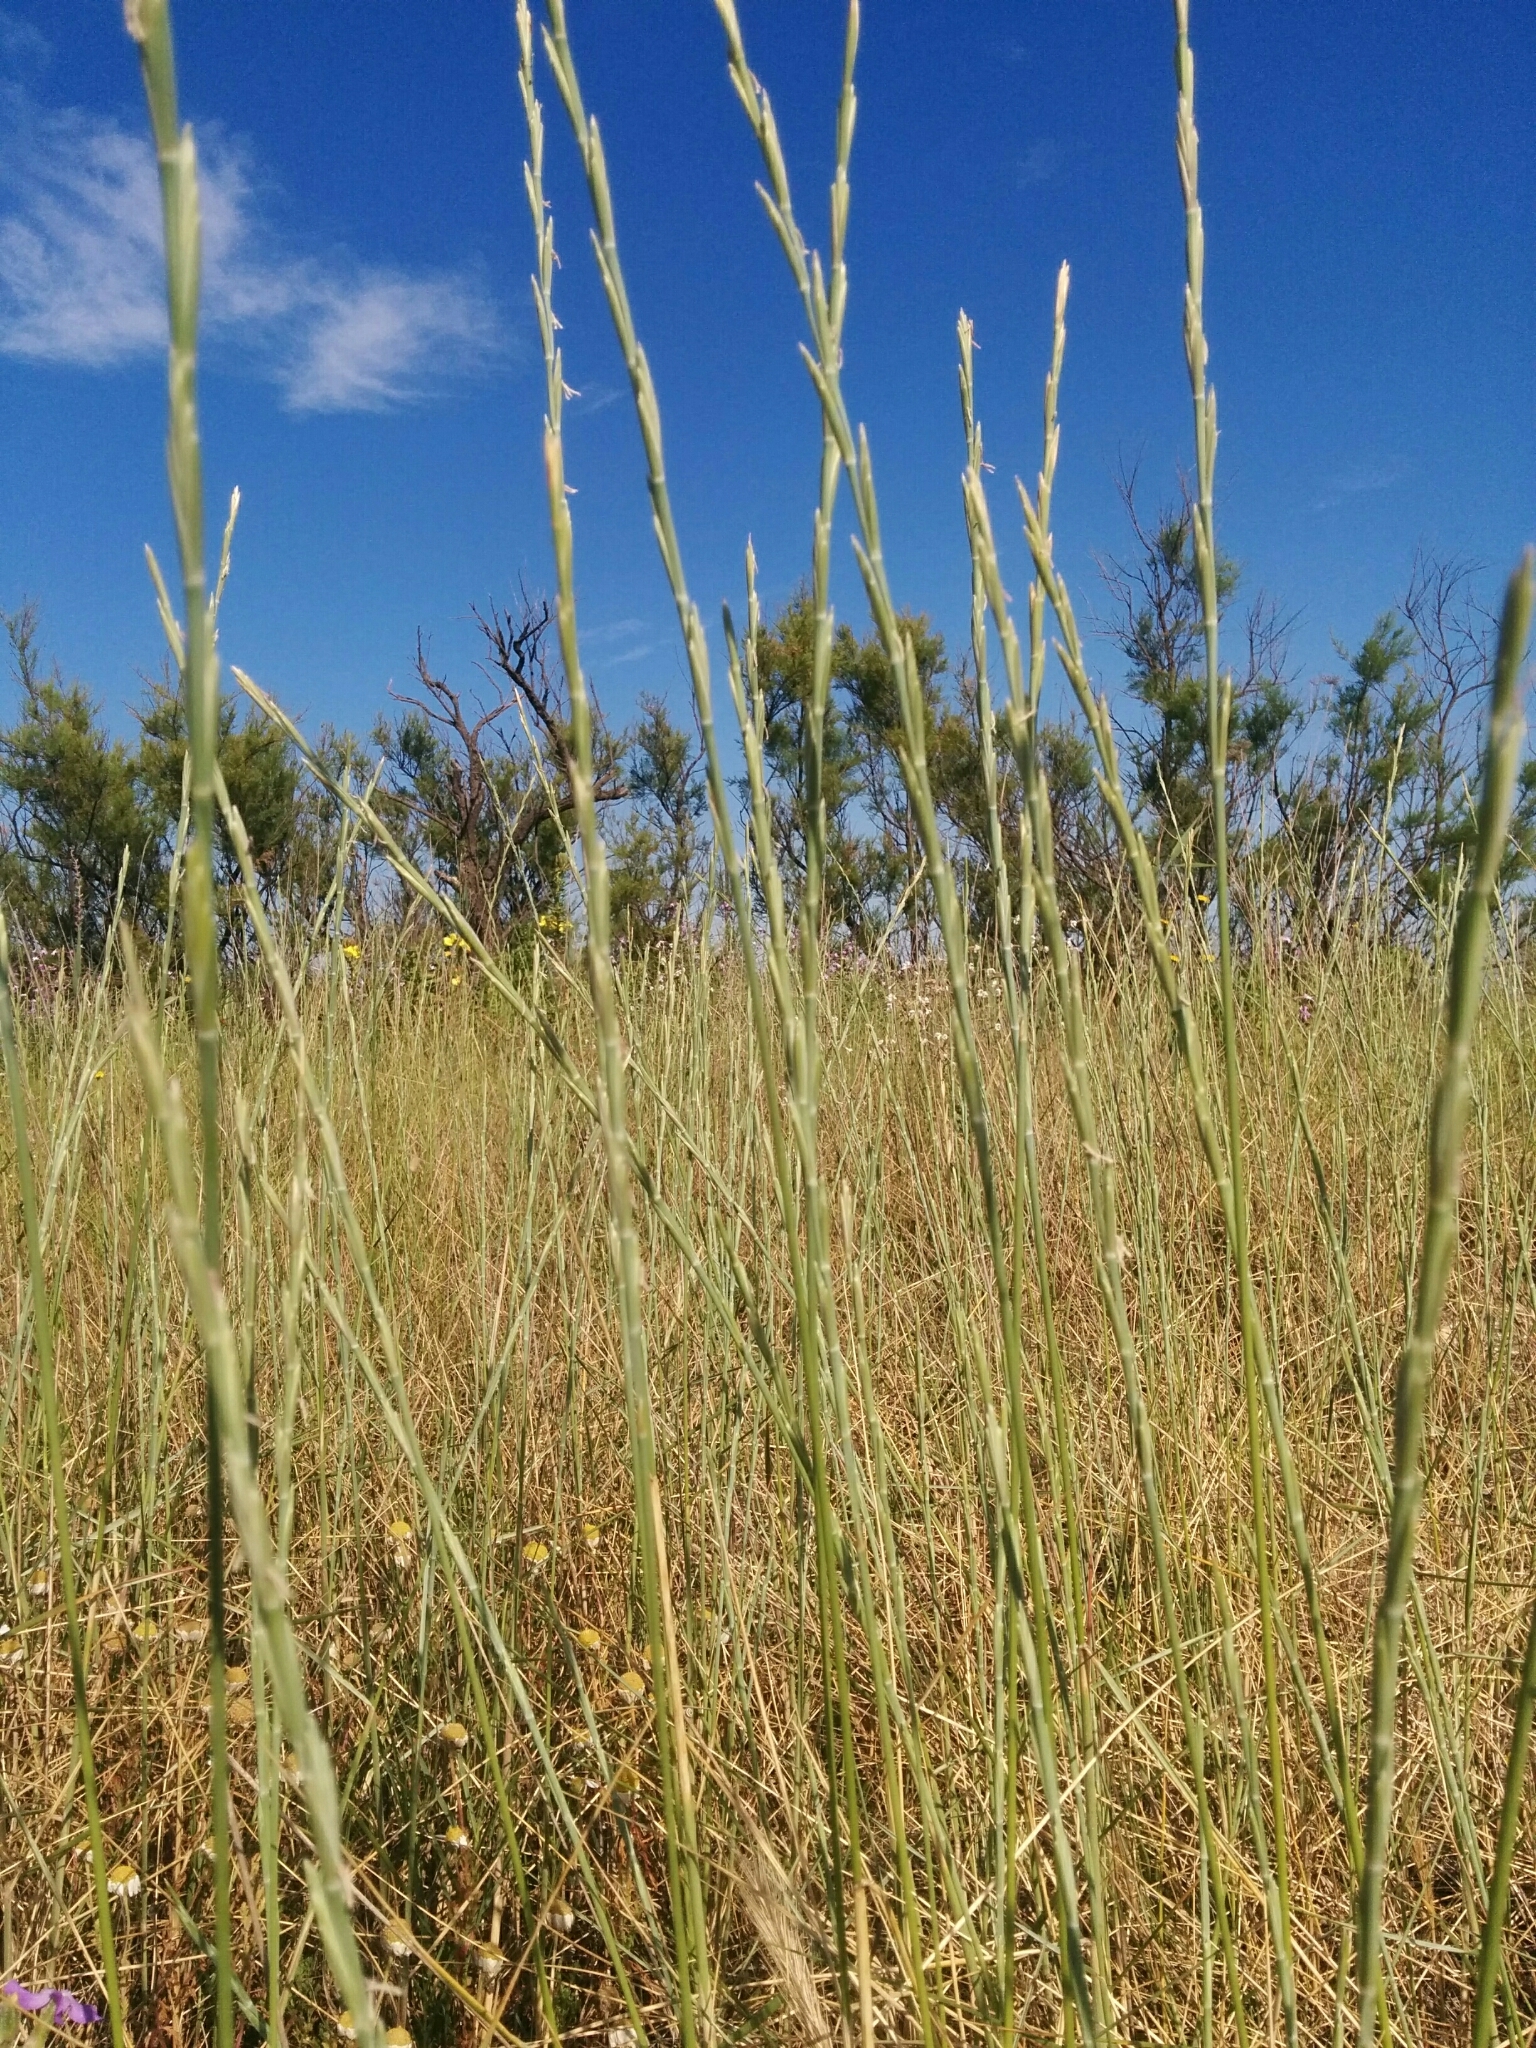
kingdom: Plantae
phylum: Tracheophyta
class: Liliopsida
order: Poales
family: Poaceae
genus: Thinopyrum
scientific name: Thinopyrum junceum
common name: Russian wheatgrass
